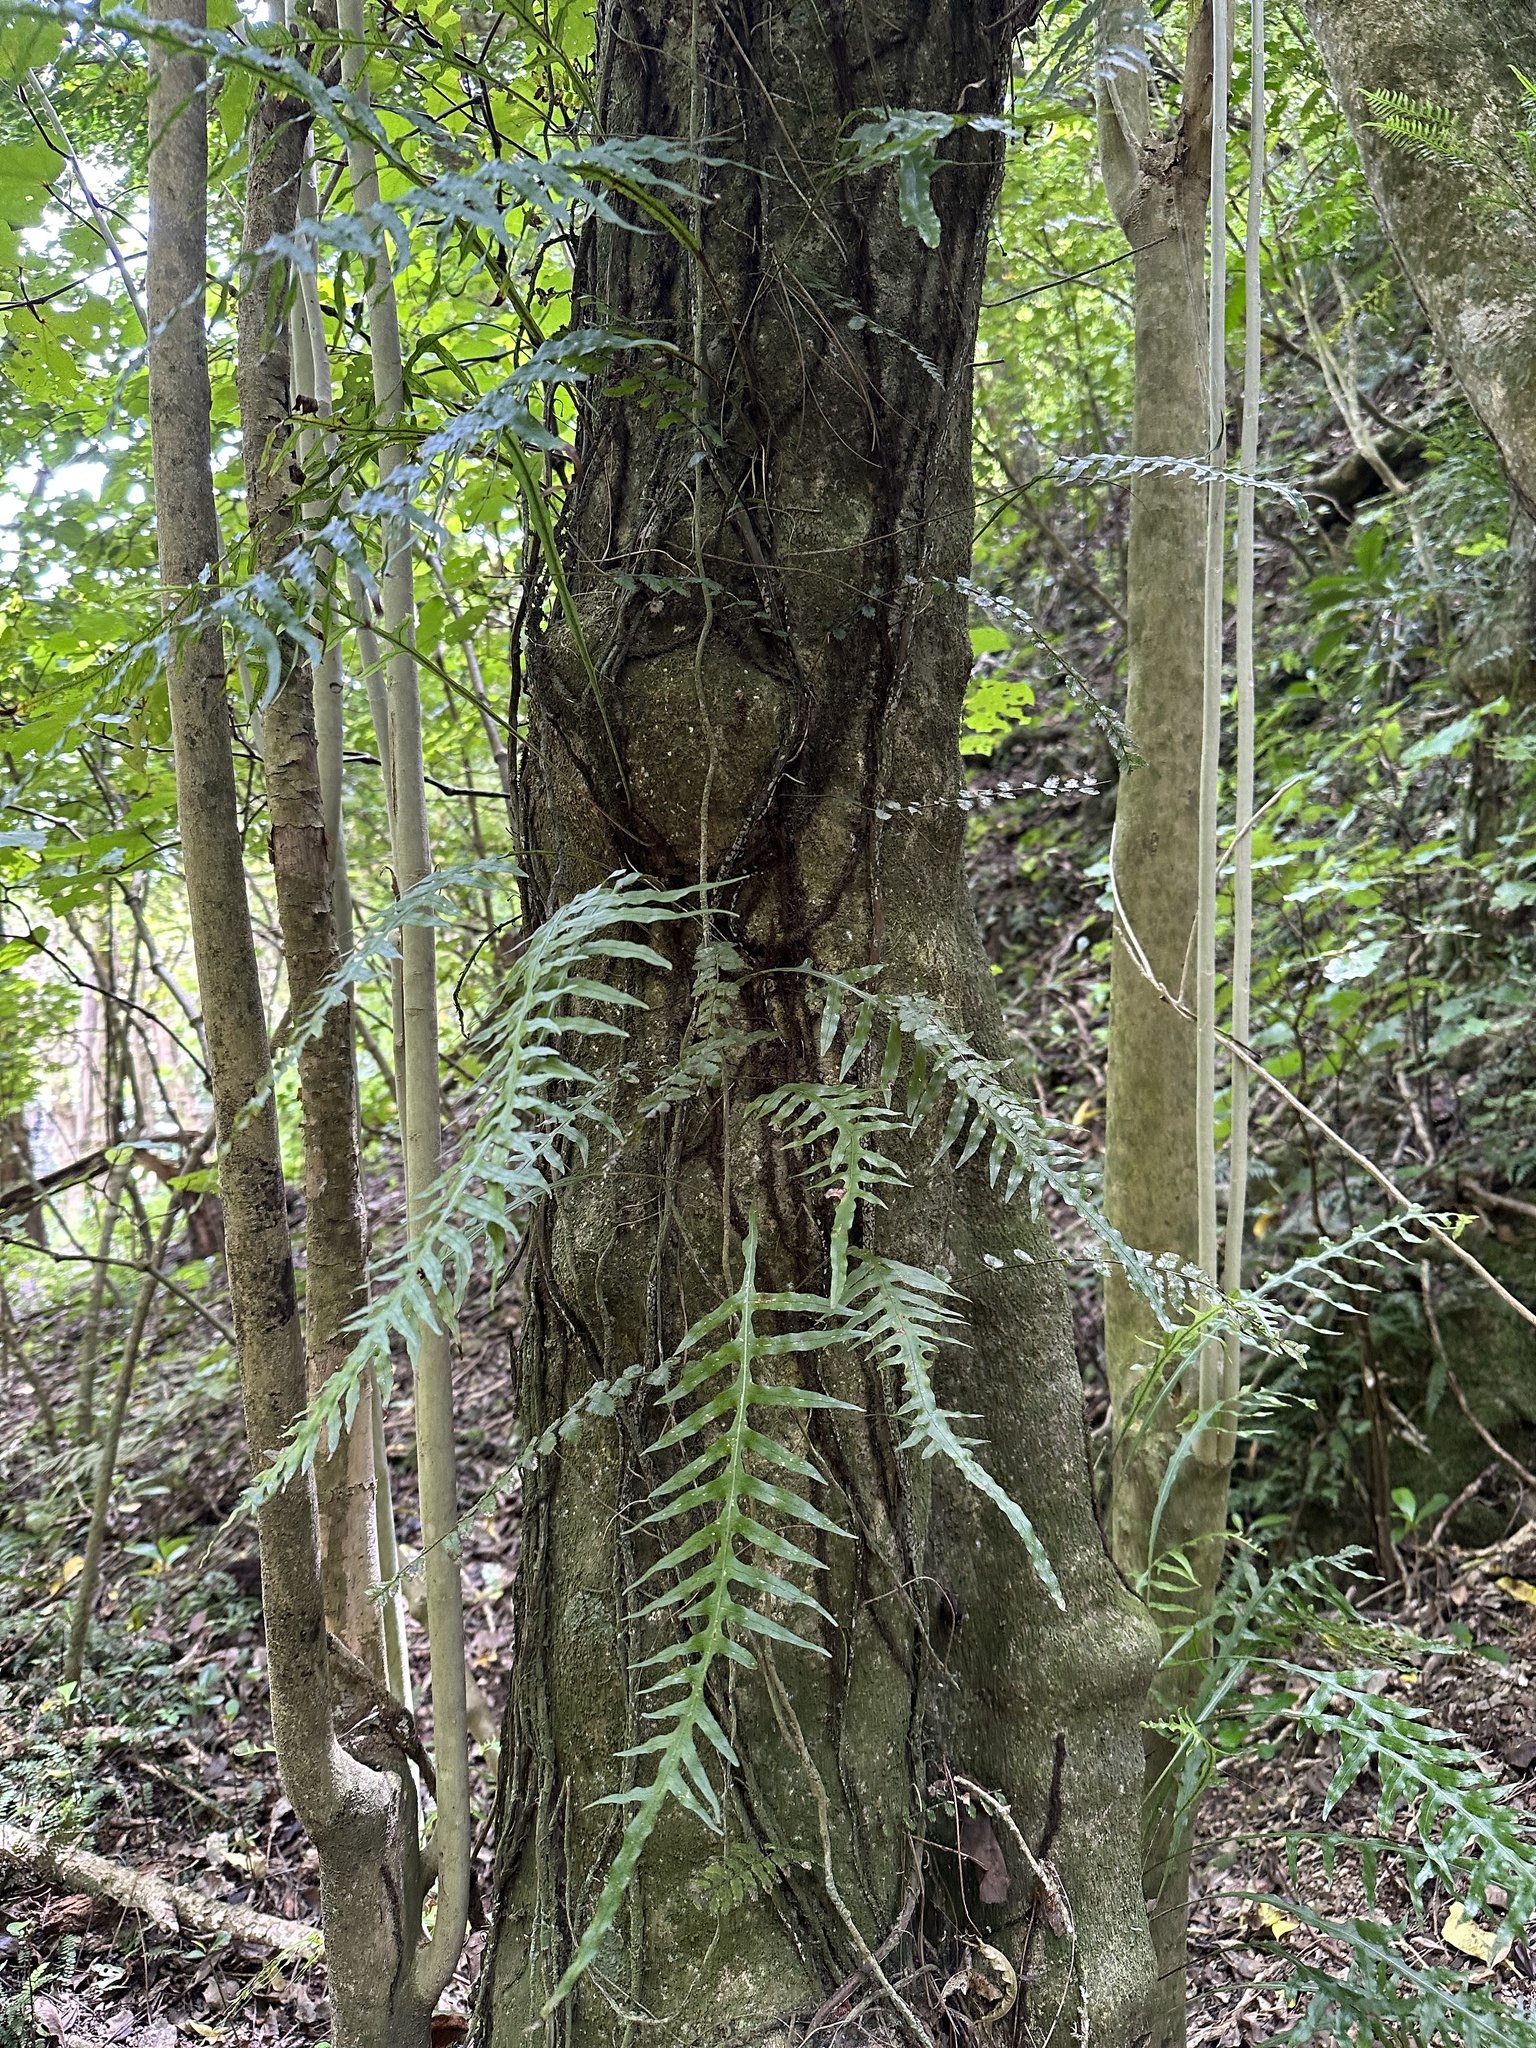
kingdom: Plantae
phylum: Tracheophyta
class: Polypodiopsida
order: Polypodiales
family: Polypodiaceae
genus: Lecanopteris
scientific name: Lecanopteris scandens
